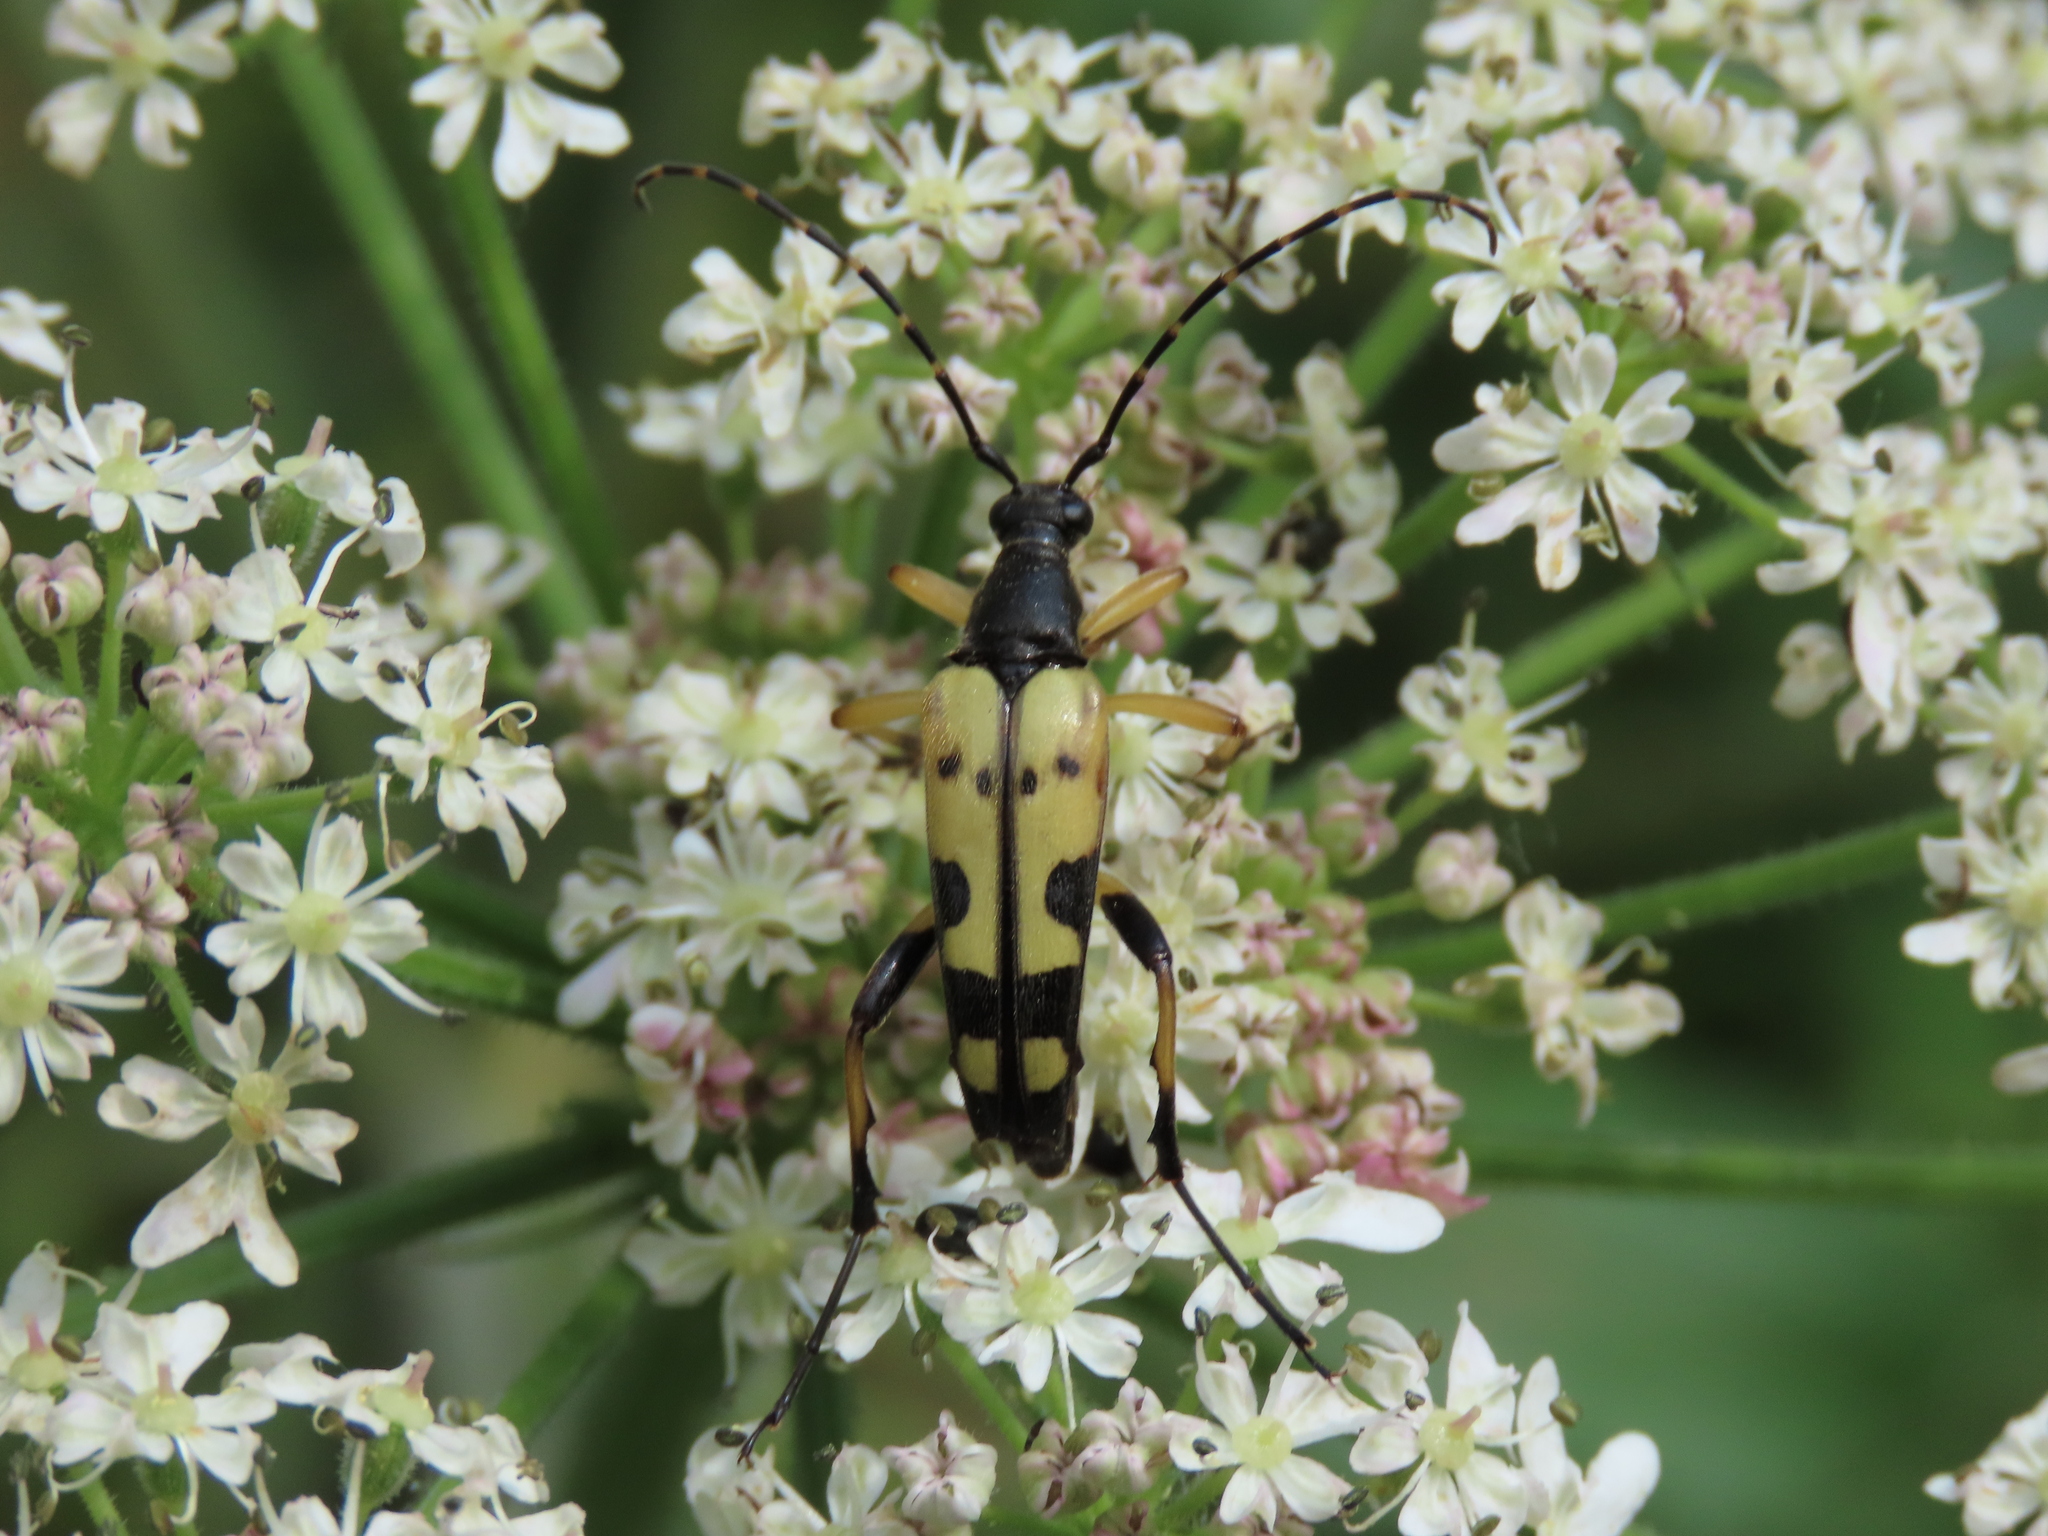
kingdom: Animalia
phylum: Arthropoda
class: Insecta
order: Coleoptera
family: Cerambycidae
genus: Rutpela
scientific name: Rutpela maculata
